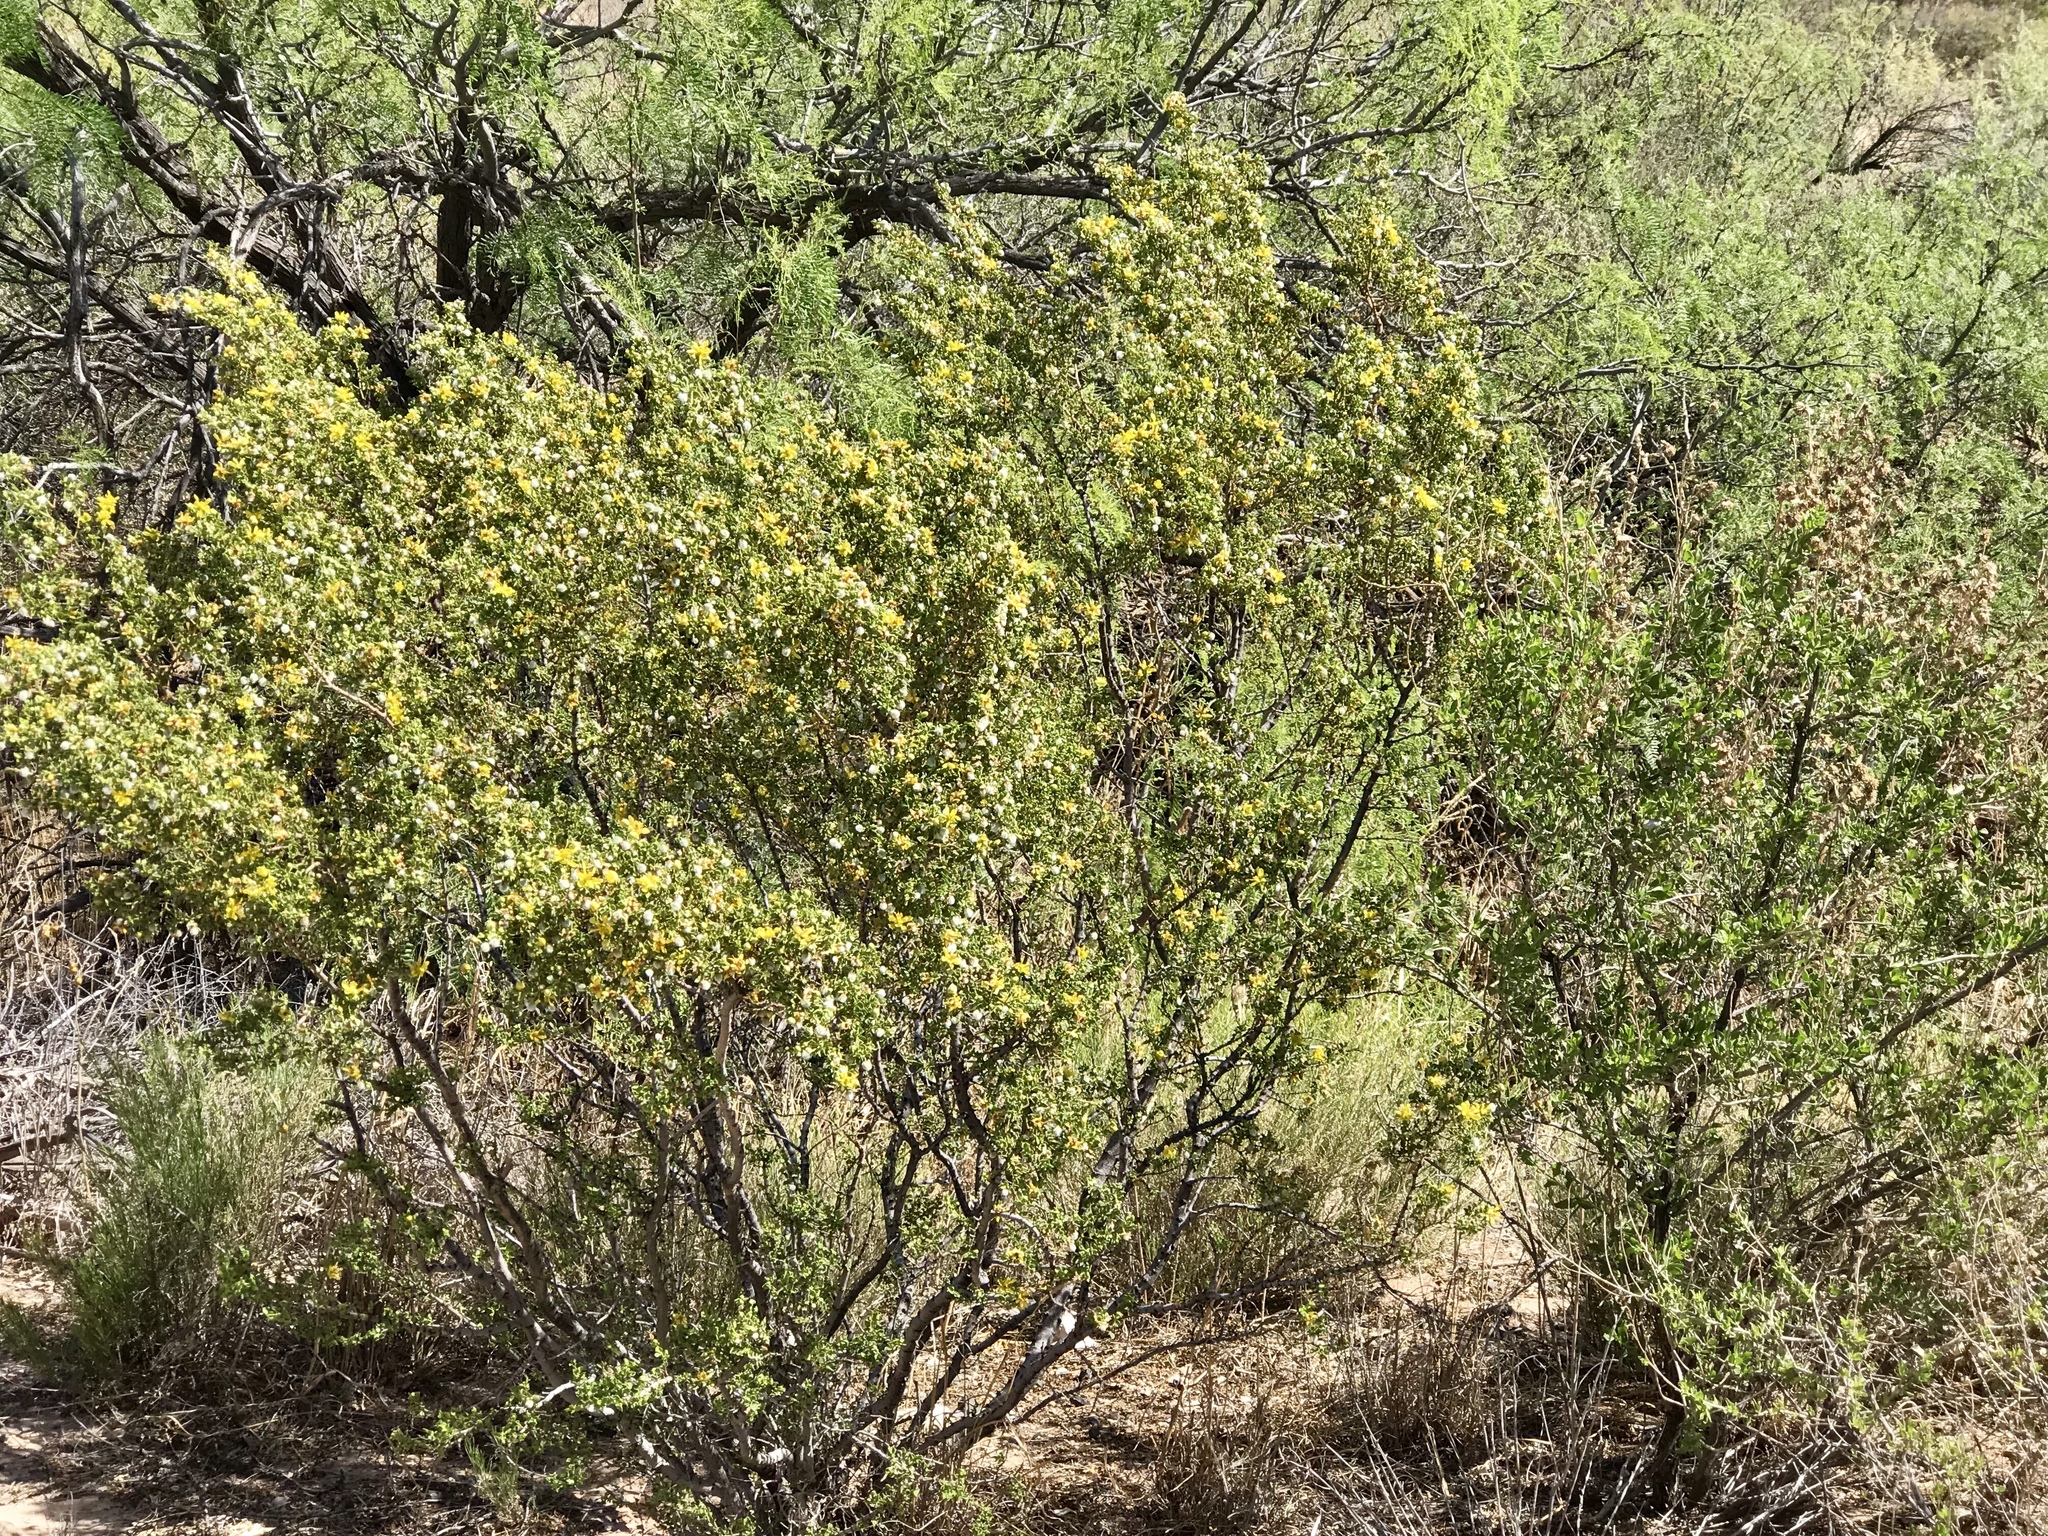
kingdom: Plantae
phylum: Tracheophyta
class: Magnoliopsida
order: Zygophyllales
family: Zygophyllaceae
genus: Larrea
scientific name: Larrea tridentata
